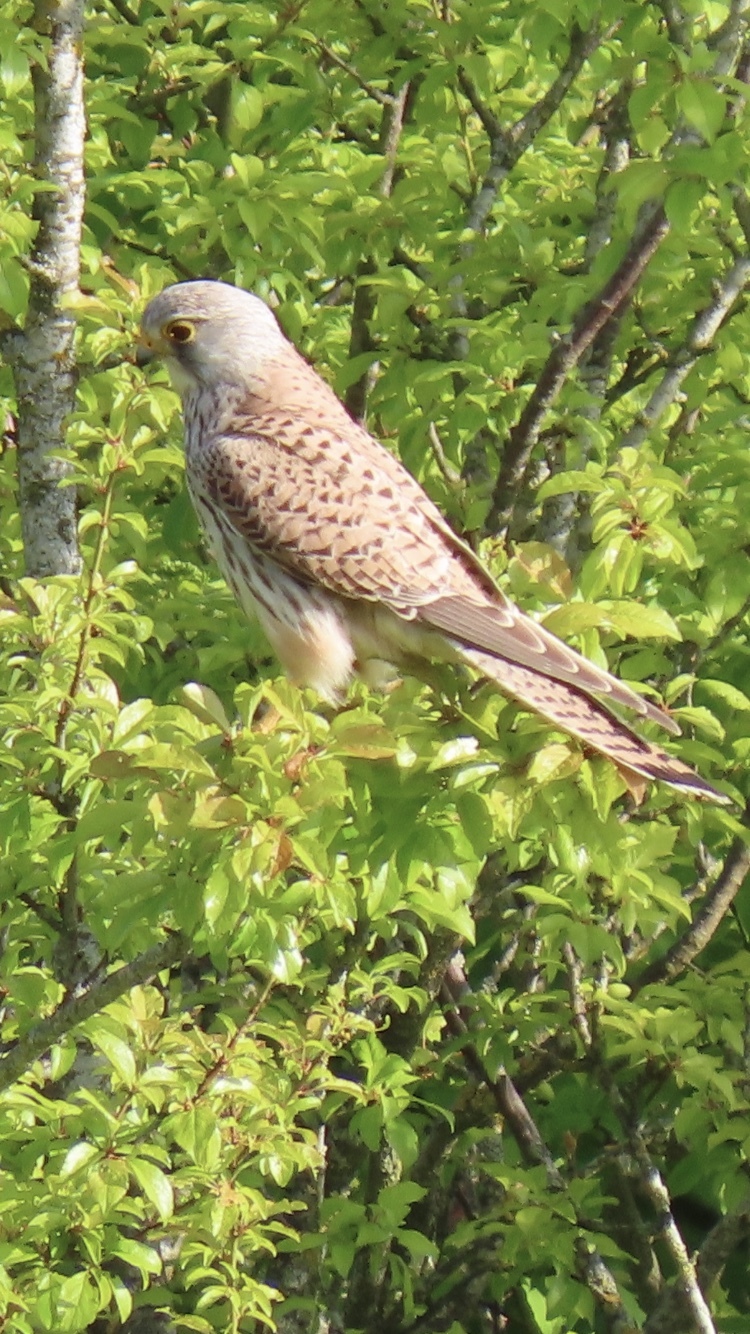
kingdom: Animalia
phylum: Chordata
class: Aves
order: Falconiformes
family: Falconidae
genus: Falco
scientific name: Falco tinnunculus
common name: Common kestrel
